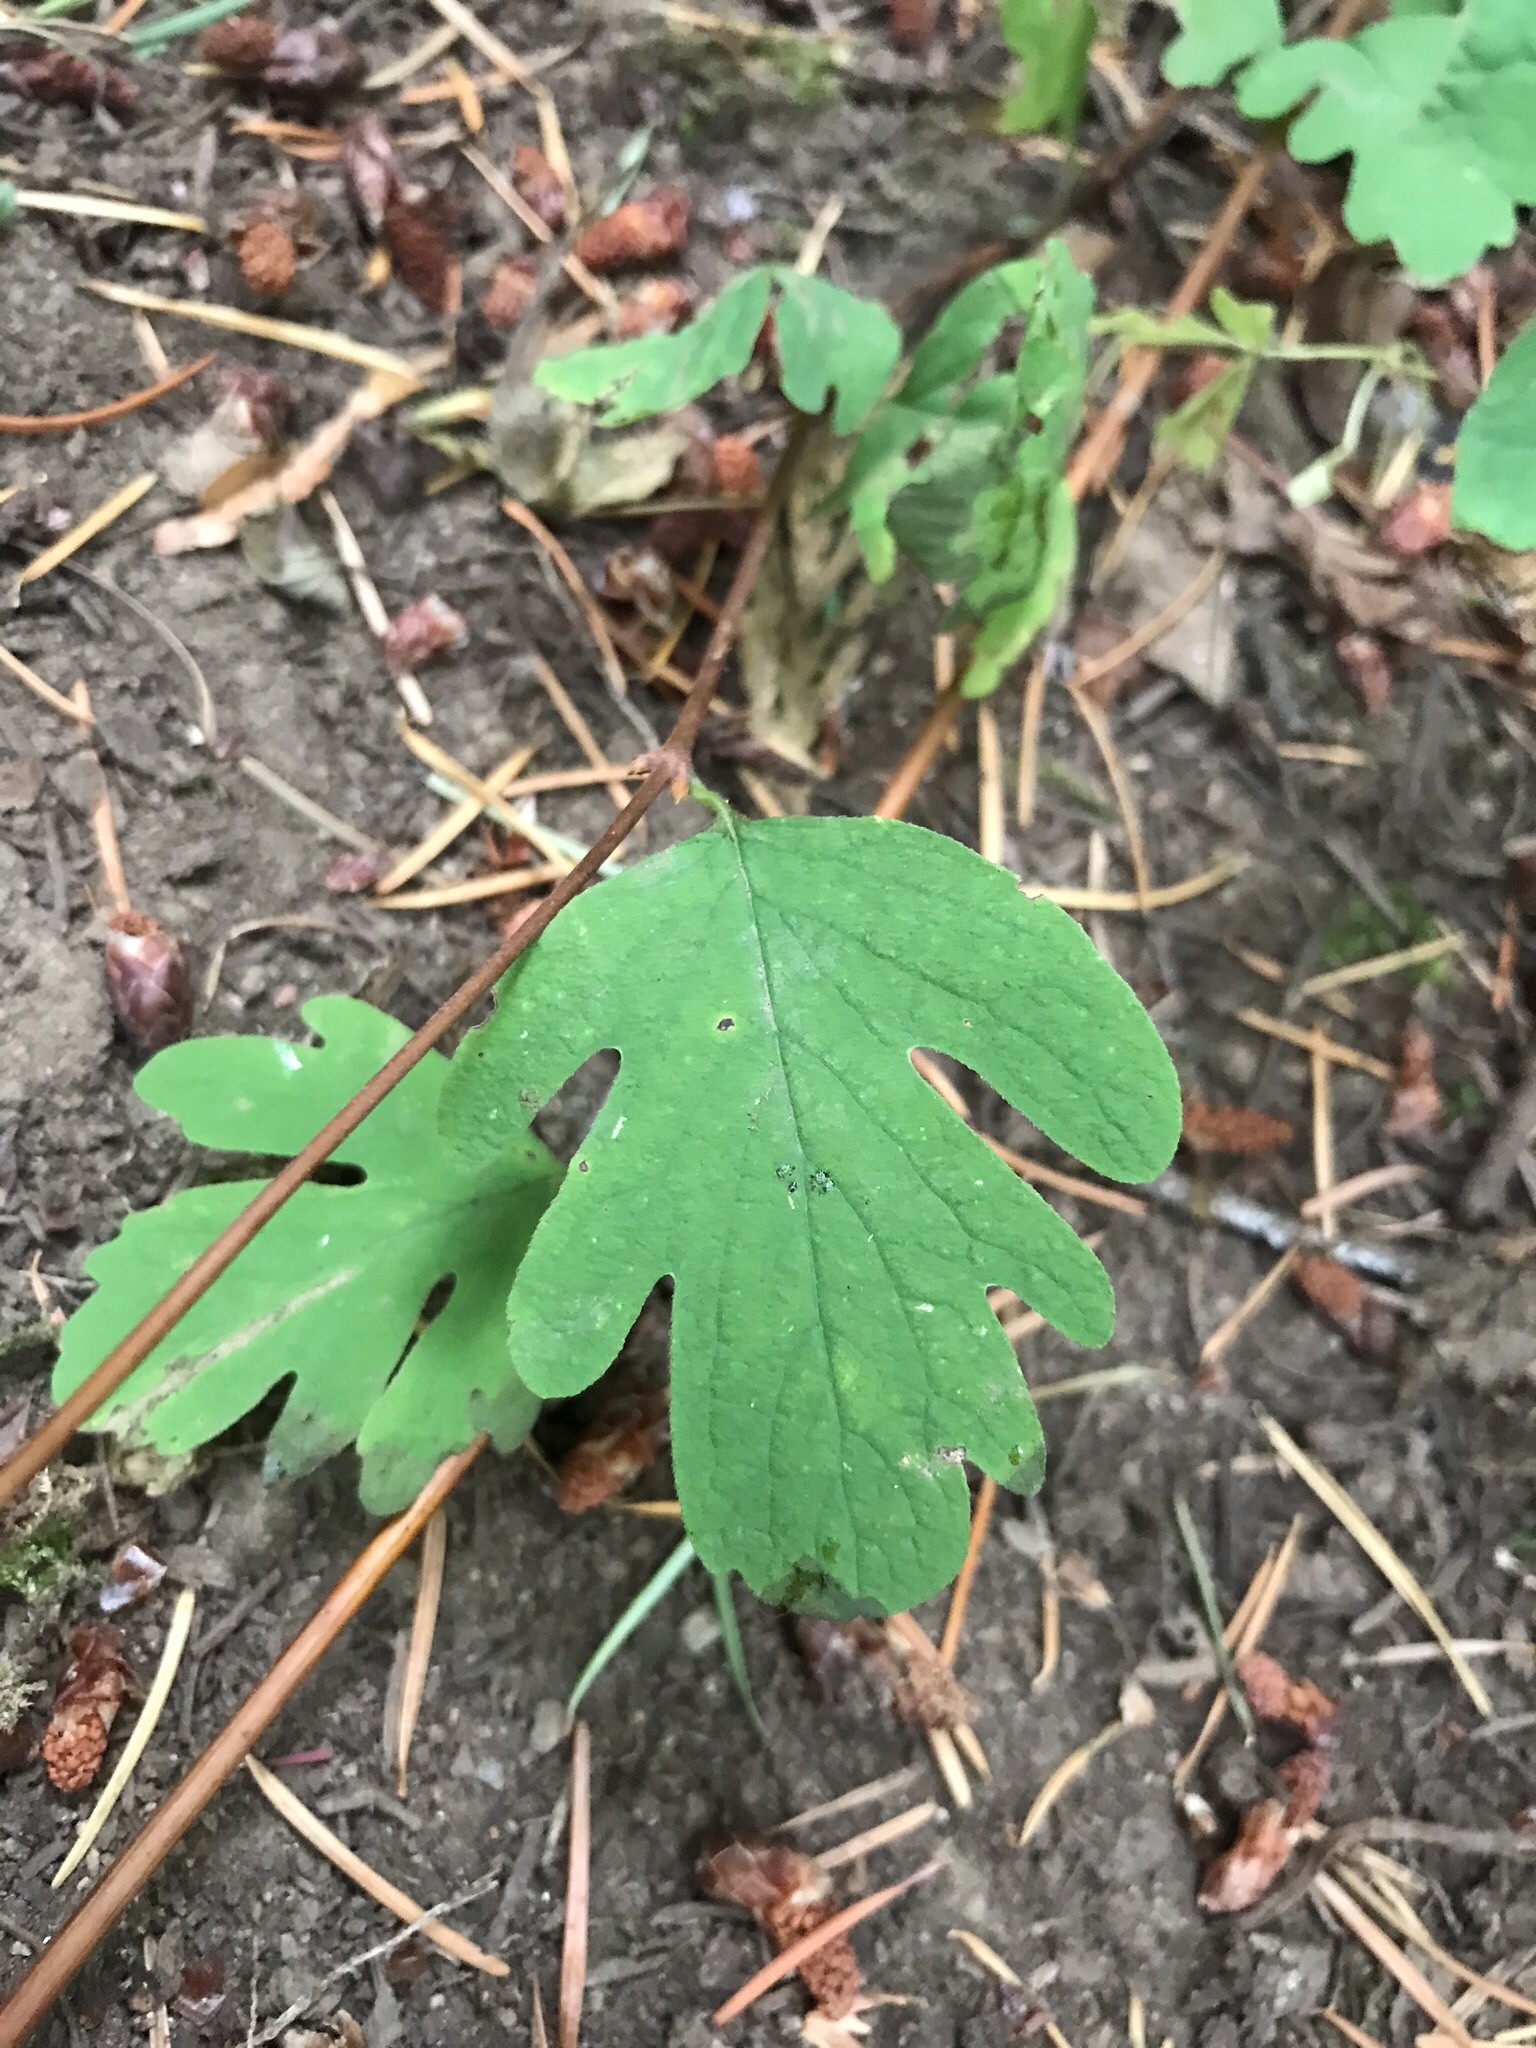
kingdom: Plantae
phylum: Tracheophyta
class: Magnoliopsida
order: Dipsacales
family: Caprifoliaceae
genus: Symphoricarpos
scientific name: Symphoricarpos mollis
